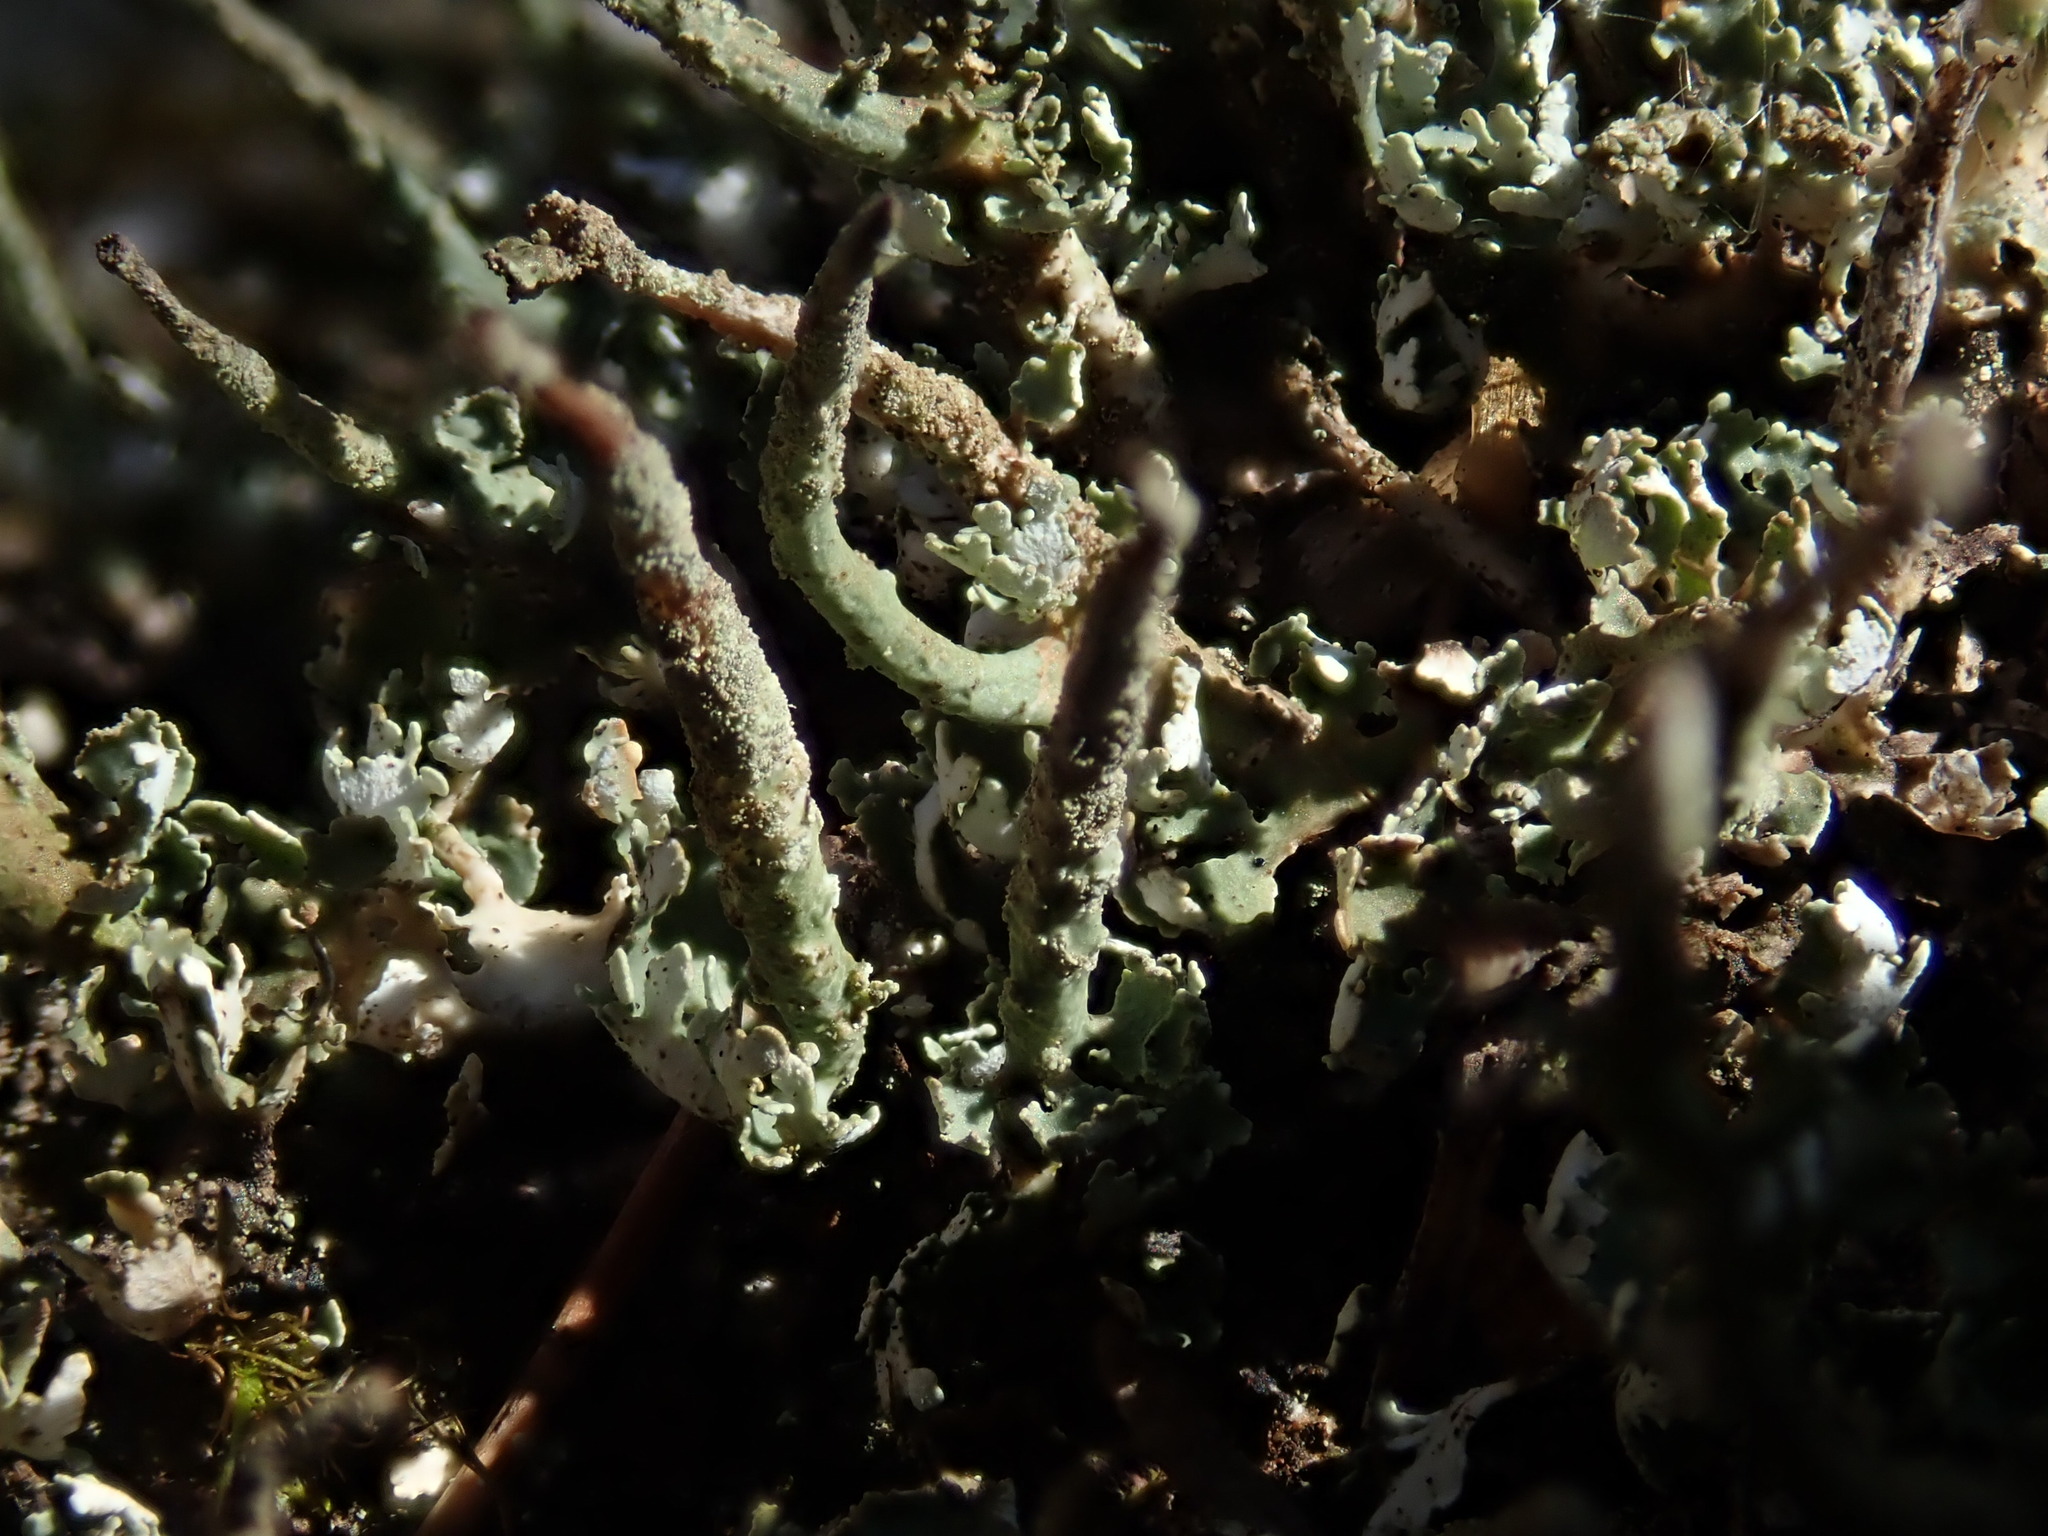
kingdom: Fungi
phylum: Ascomycota
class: Lecanoromycetes
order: Lecanorales
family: Cladoniaceae
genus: Cladonia
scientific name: Cladonia coniocraea
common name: Common powderhorn
